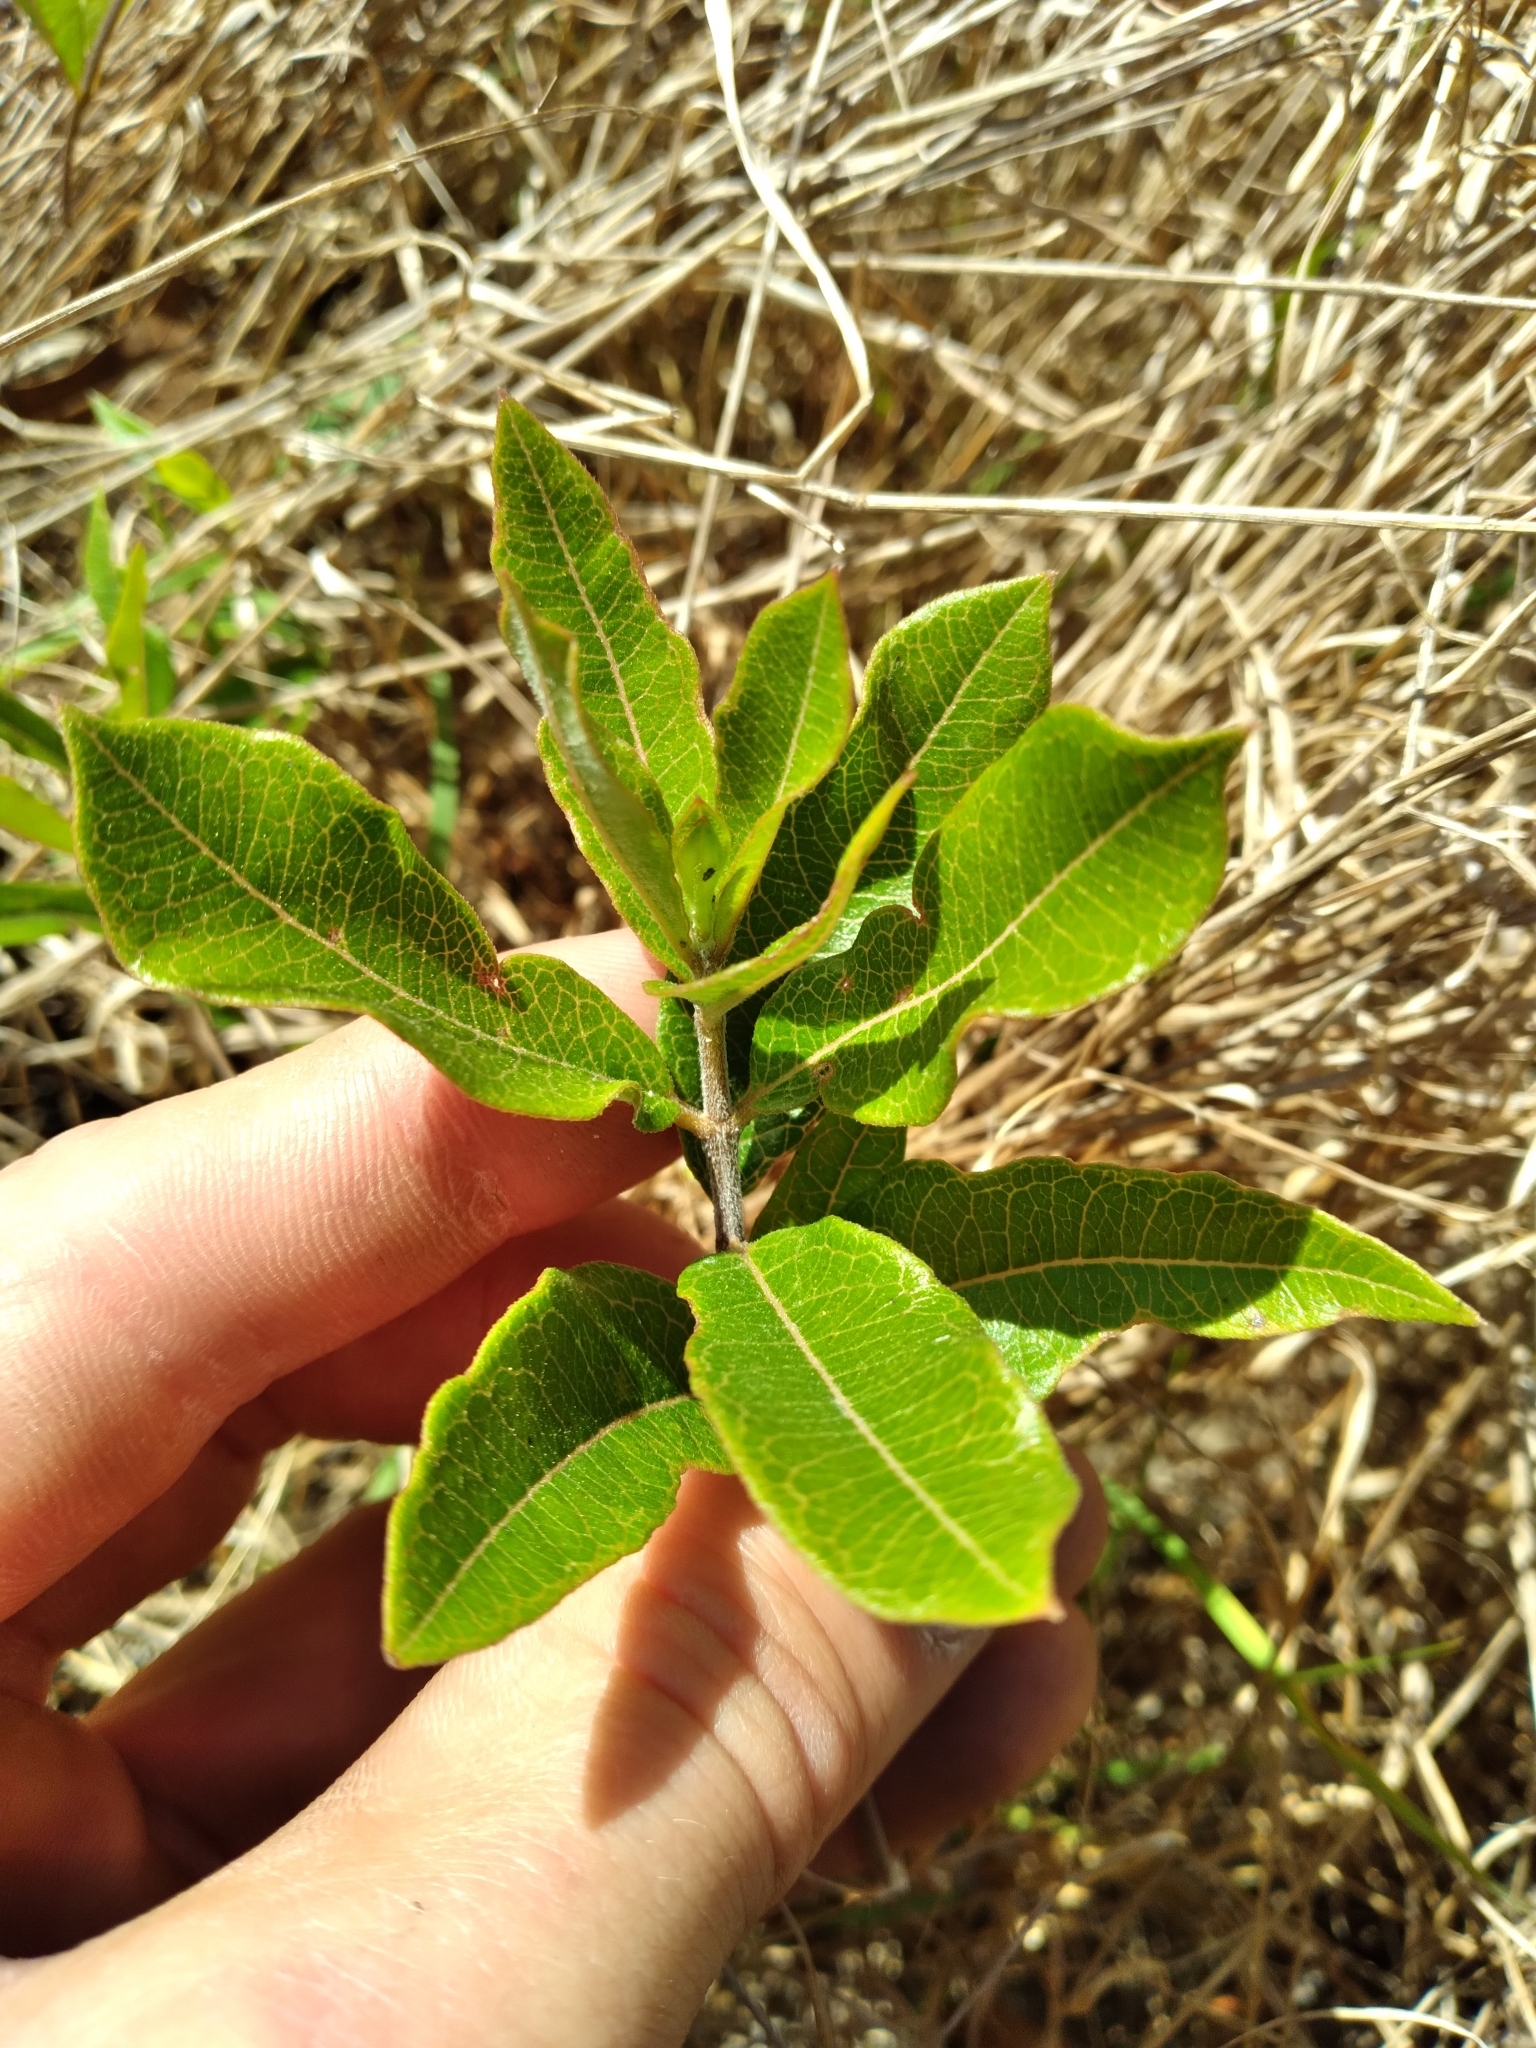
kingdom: Plantae
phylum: Tracheophyta
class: Magnoliopsida
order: Gentianales
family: Apocynaceae
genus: Asclepias
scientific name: Asclepias tomentosa
